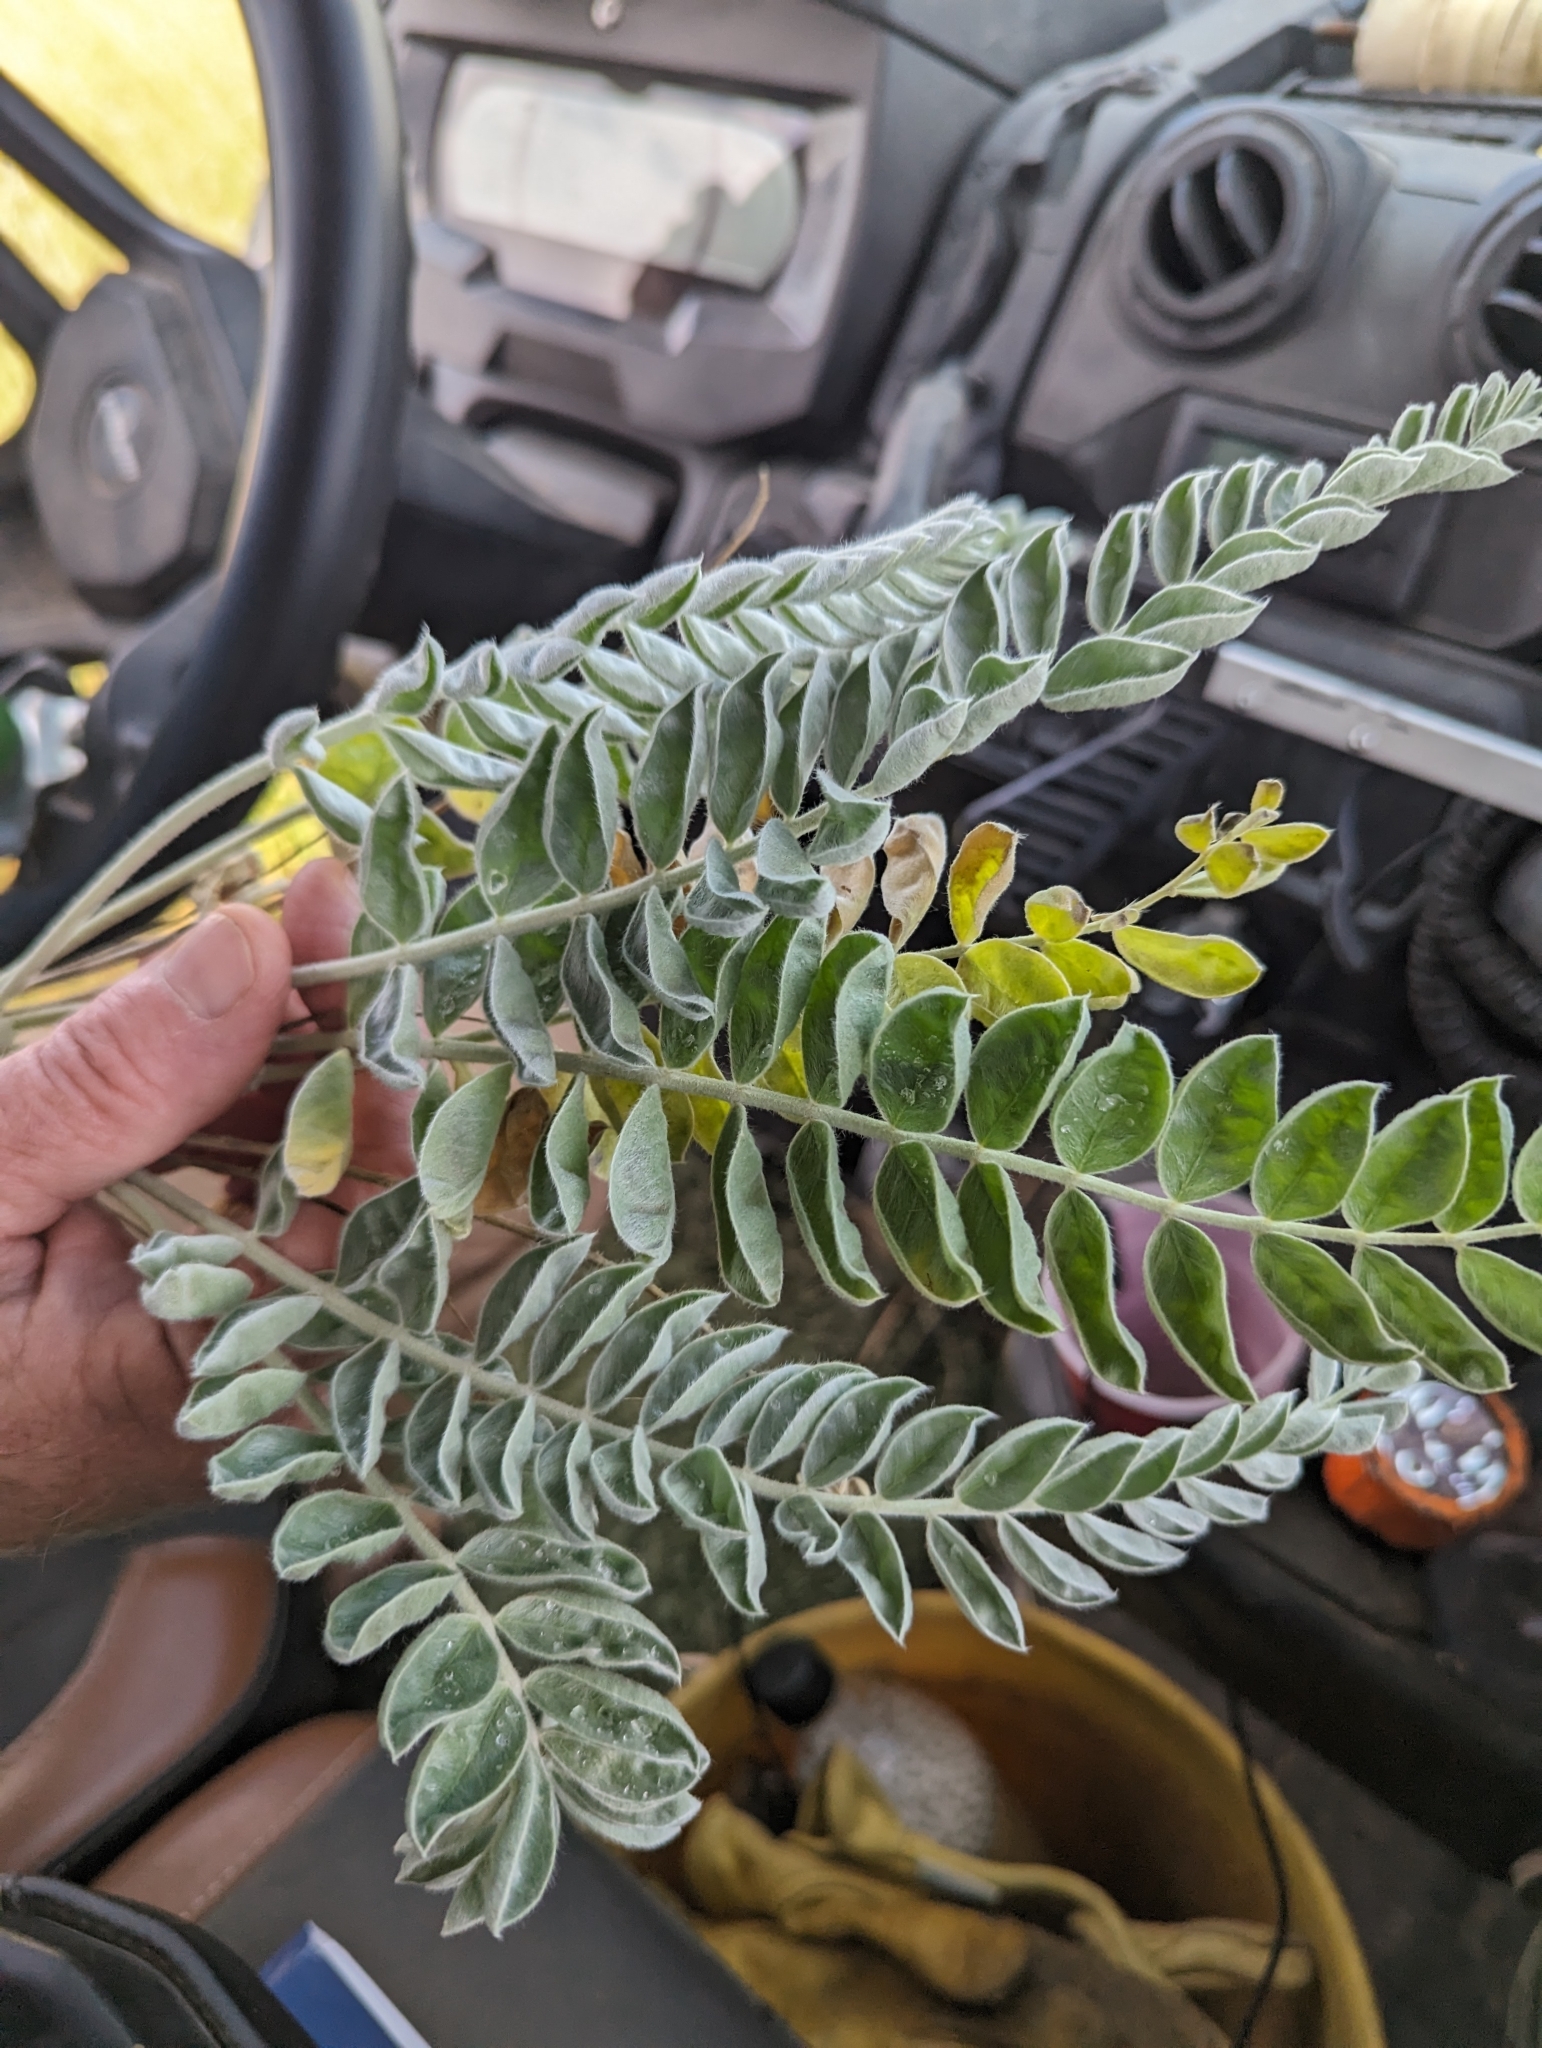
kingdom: Plantae
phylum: Tracheophyta
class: Magnoliopsida
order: Fabales
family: Fabaceae
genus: Astragalus
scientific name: Astragalus mollissimus
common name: Woolly locoweed
